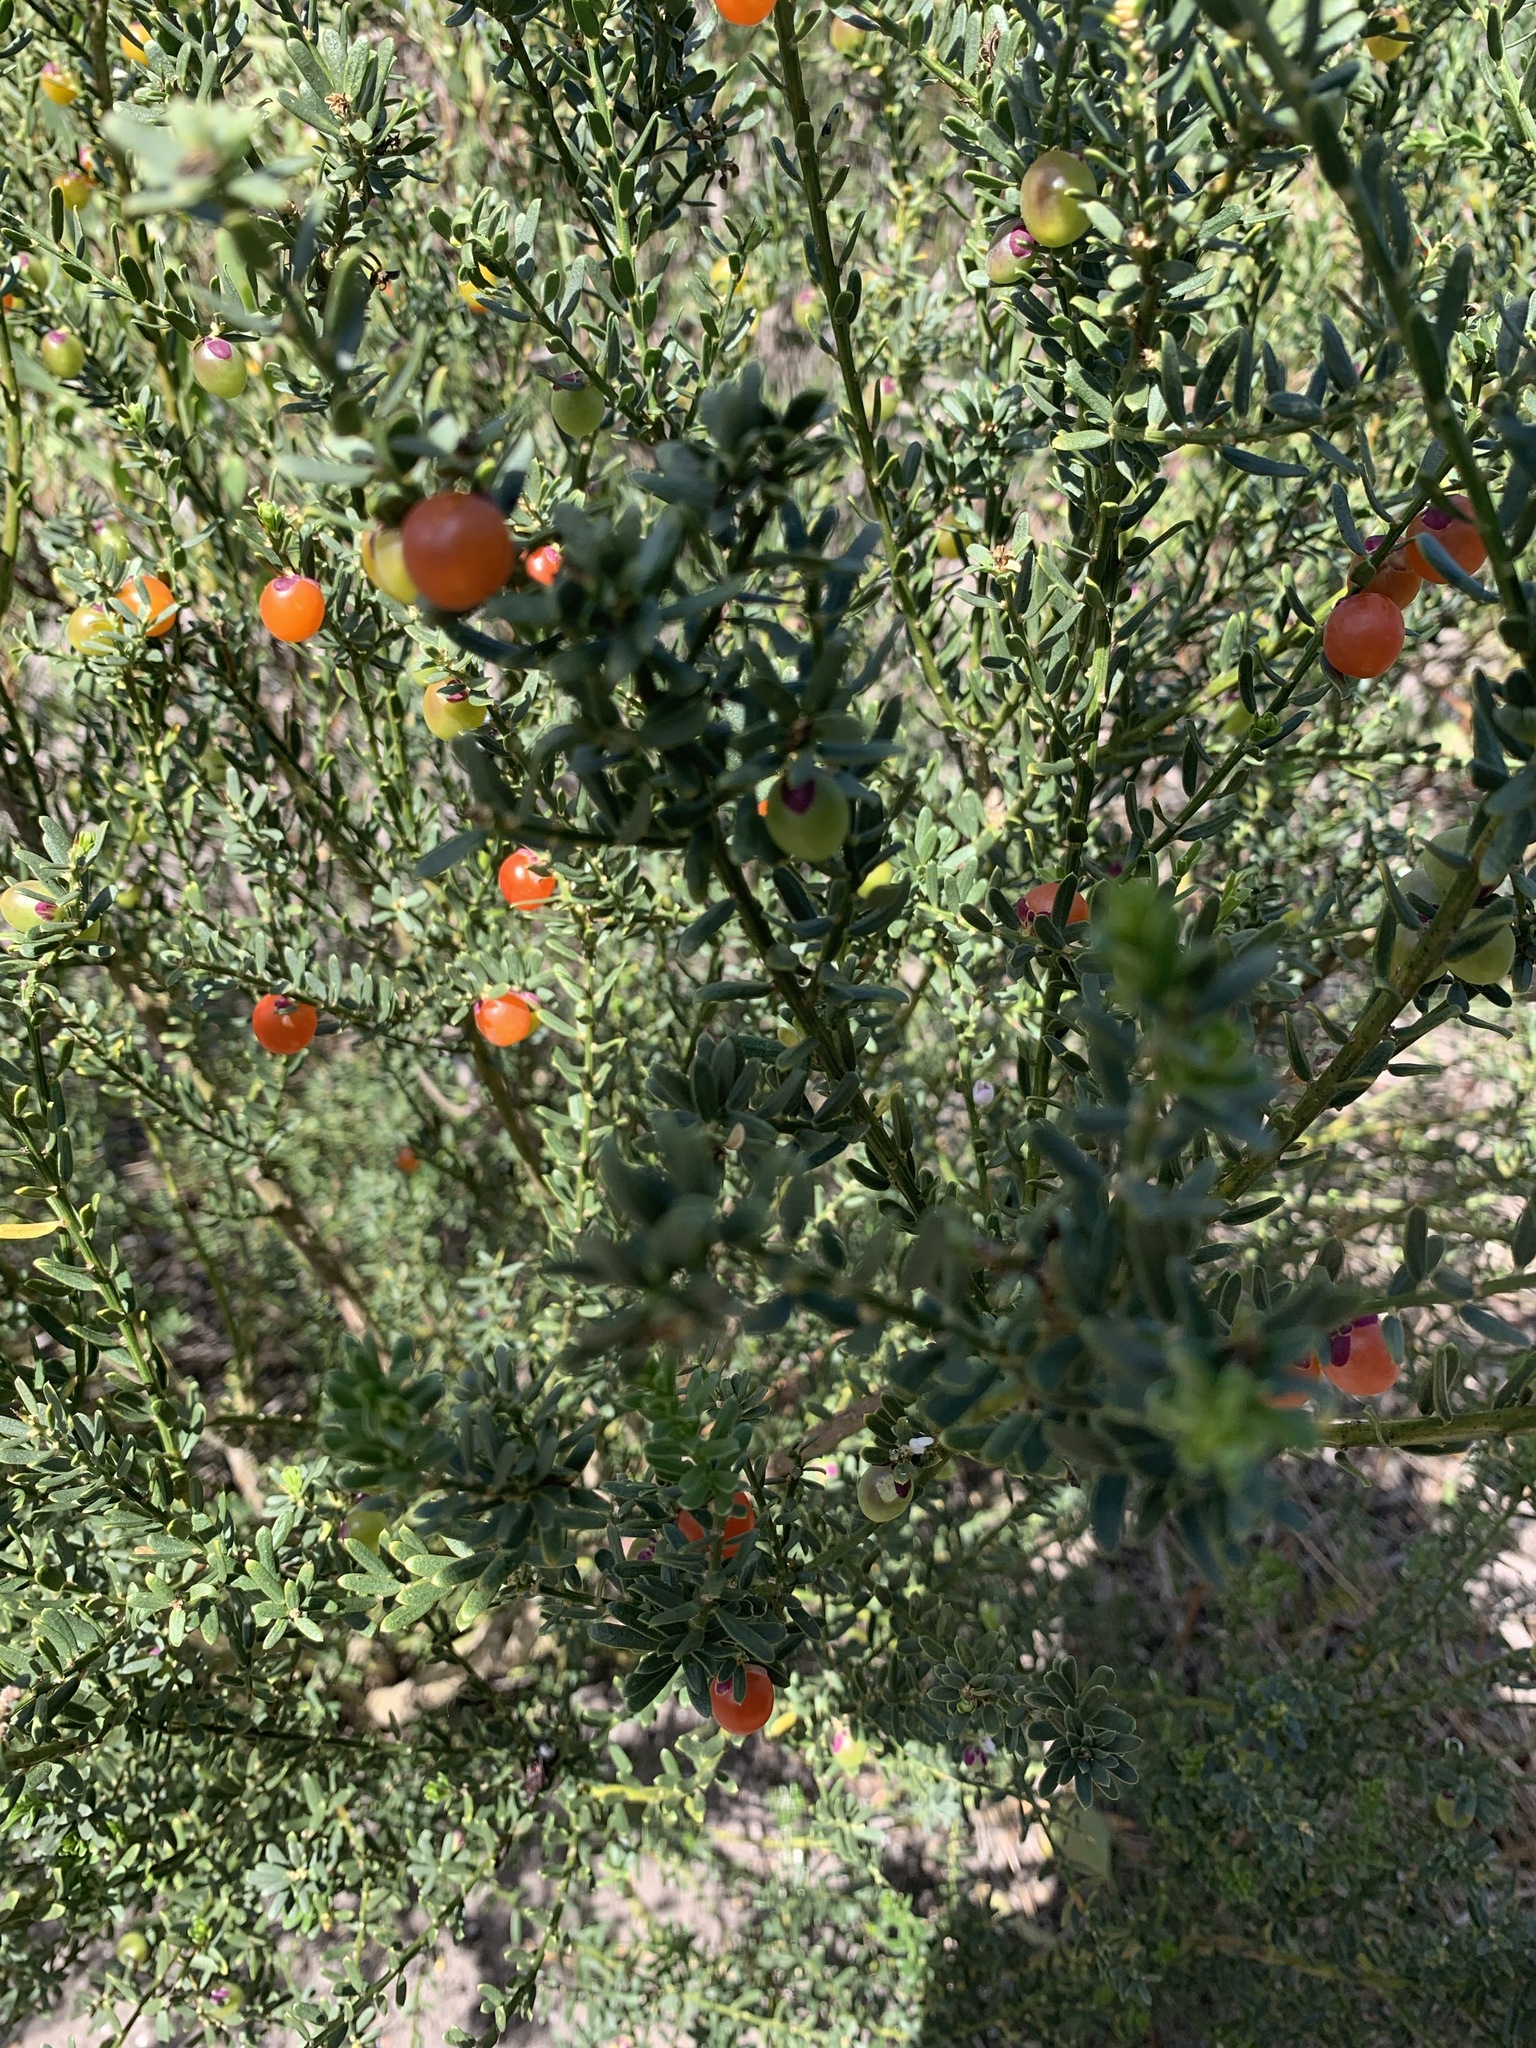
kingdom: Plantae
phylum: Tracheophyta
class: Magnoliopsida
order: Fabales
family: Polygalaceae
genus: Muraltia
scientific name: Muraltia spinosa
